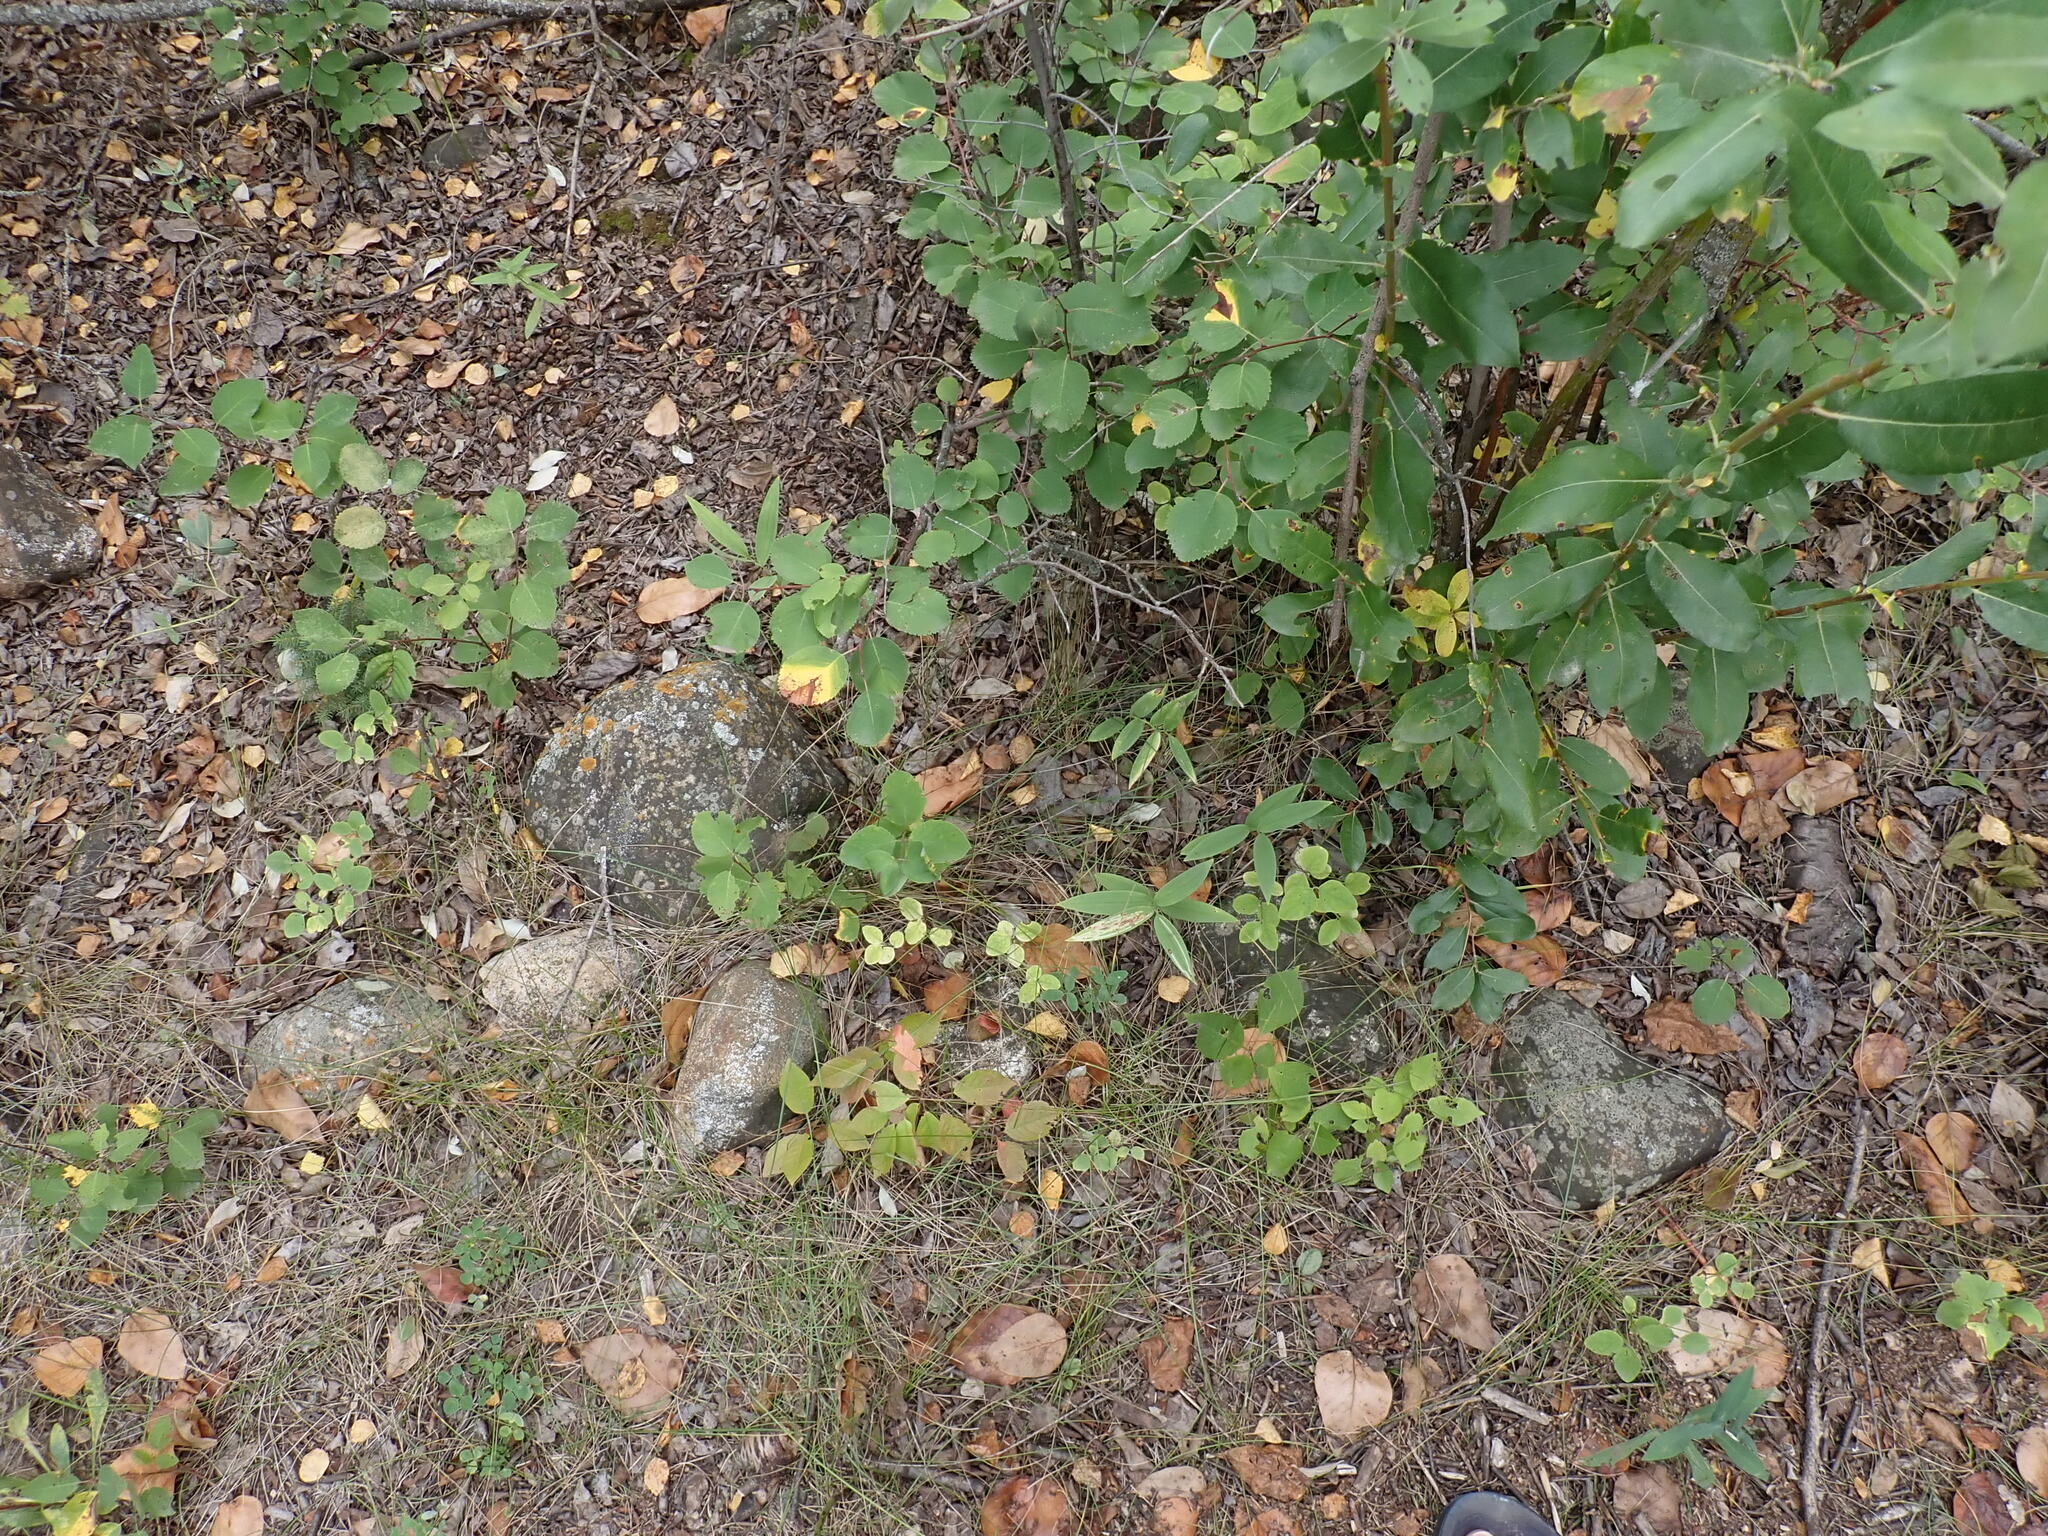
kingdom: Animalia
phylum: Arthropoda
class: Insecta
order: Diptera
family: Agromyzidae
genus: Liriomyza
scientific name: Liriomyza smilacinae
